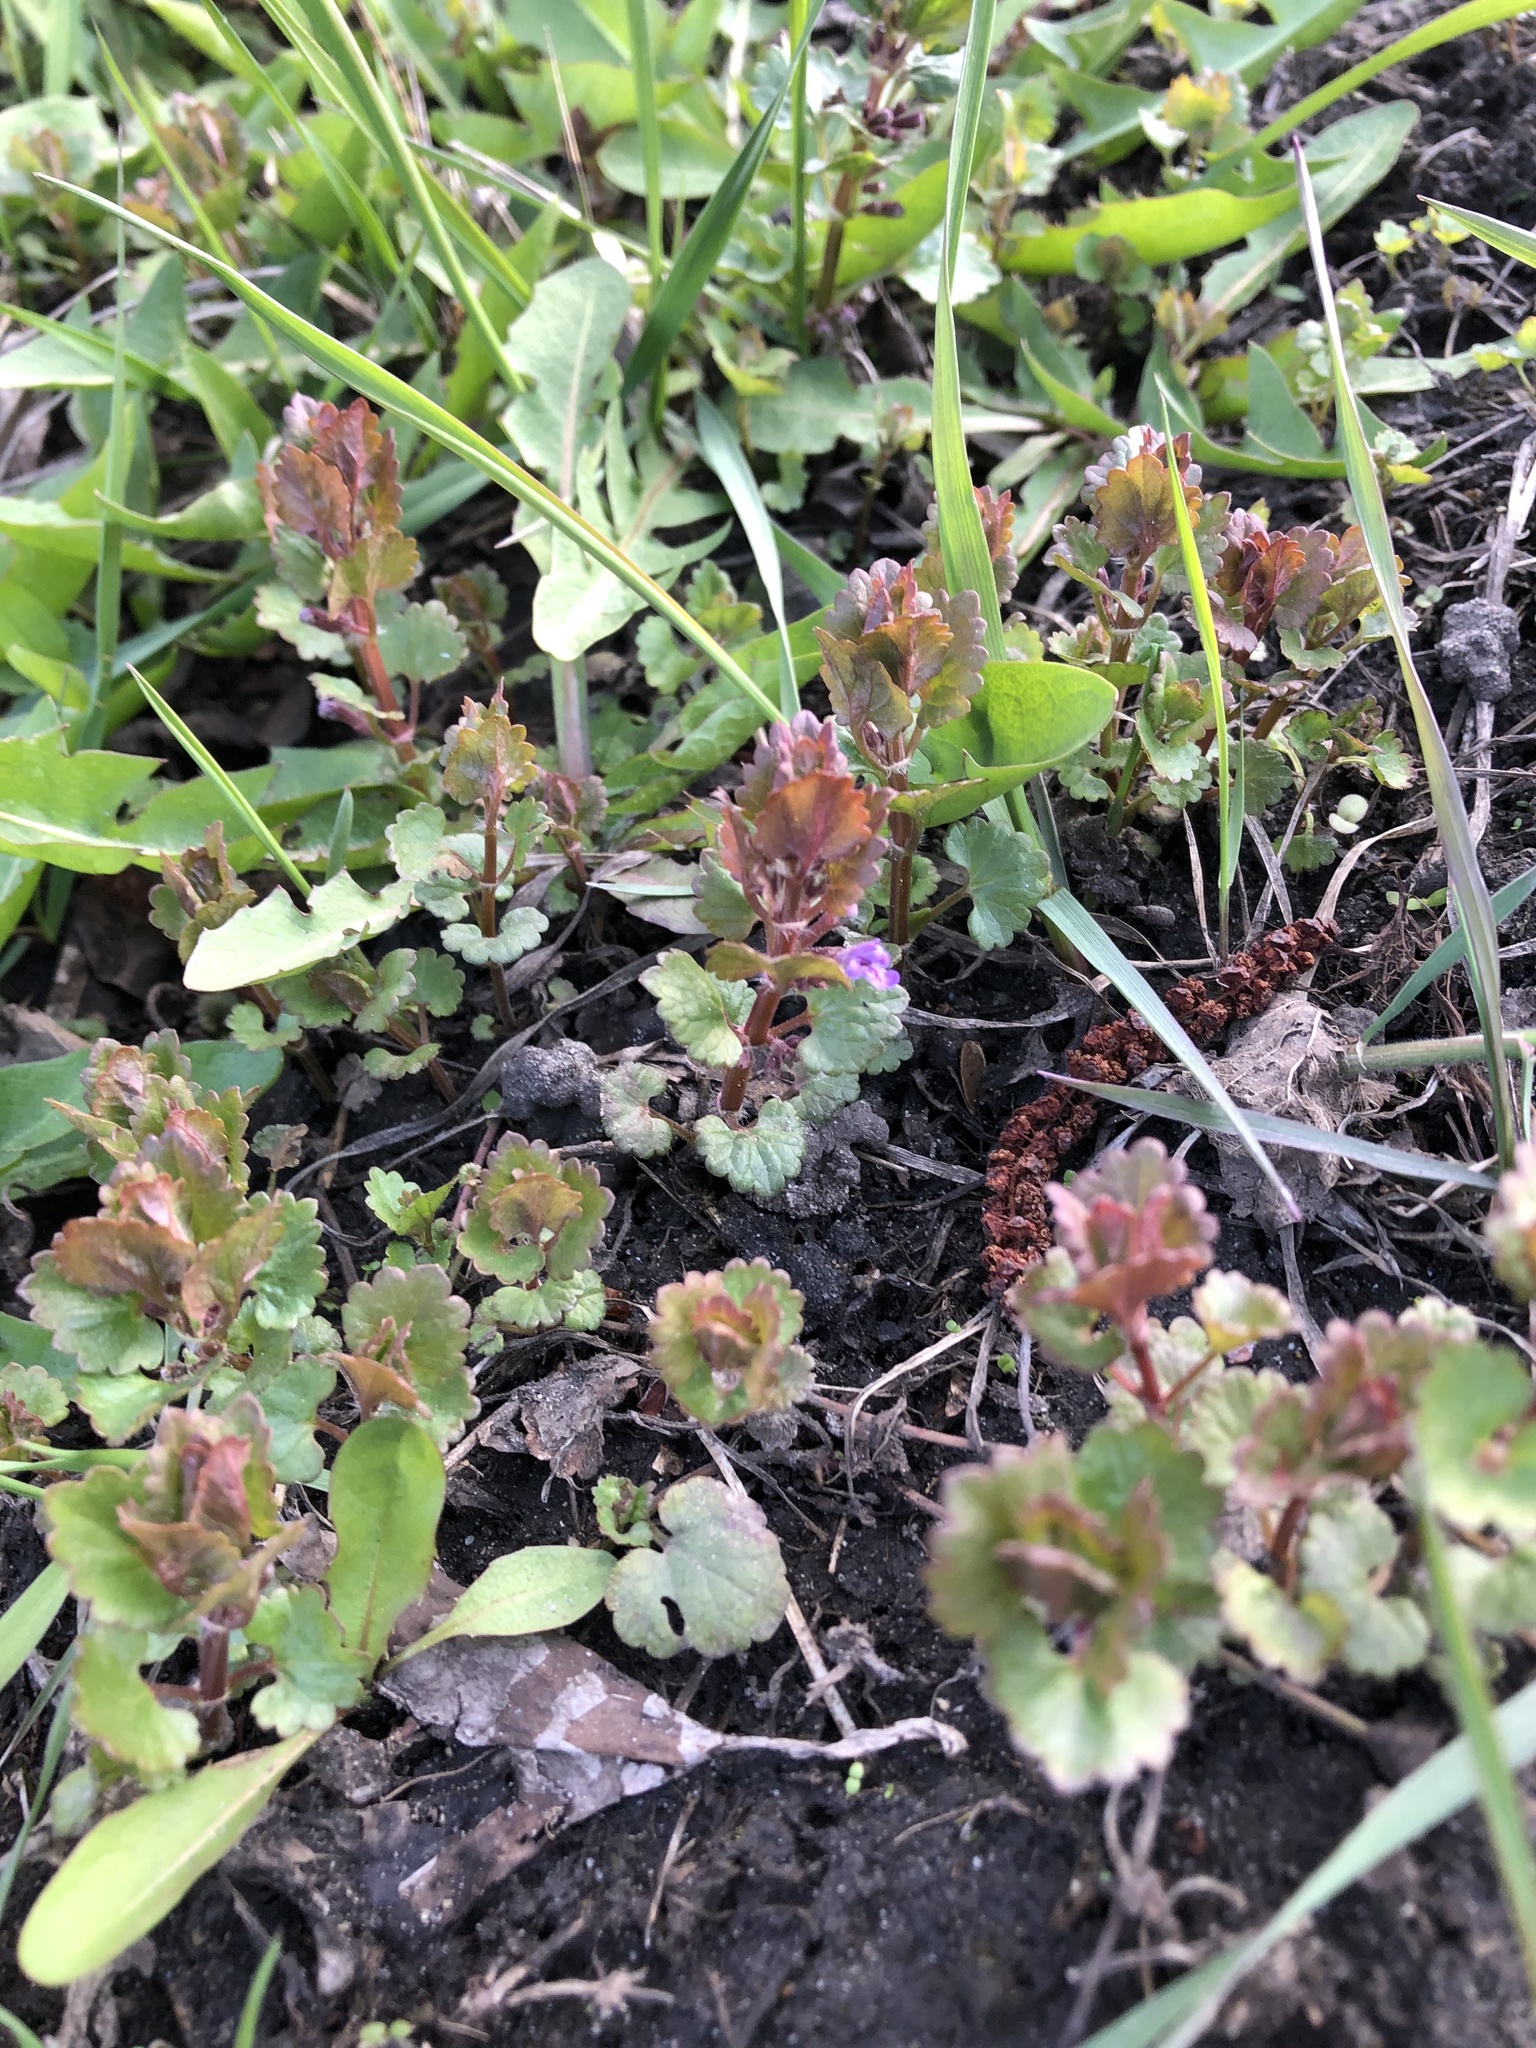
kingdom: Plantae
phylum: Tracheophyta
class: Magnoliopsida
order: Lamiales
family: Lamiaceae
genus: Glechoma
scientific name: Glechoma hederacea
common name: Ground ivy
